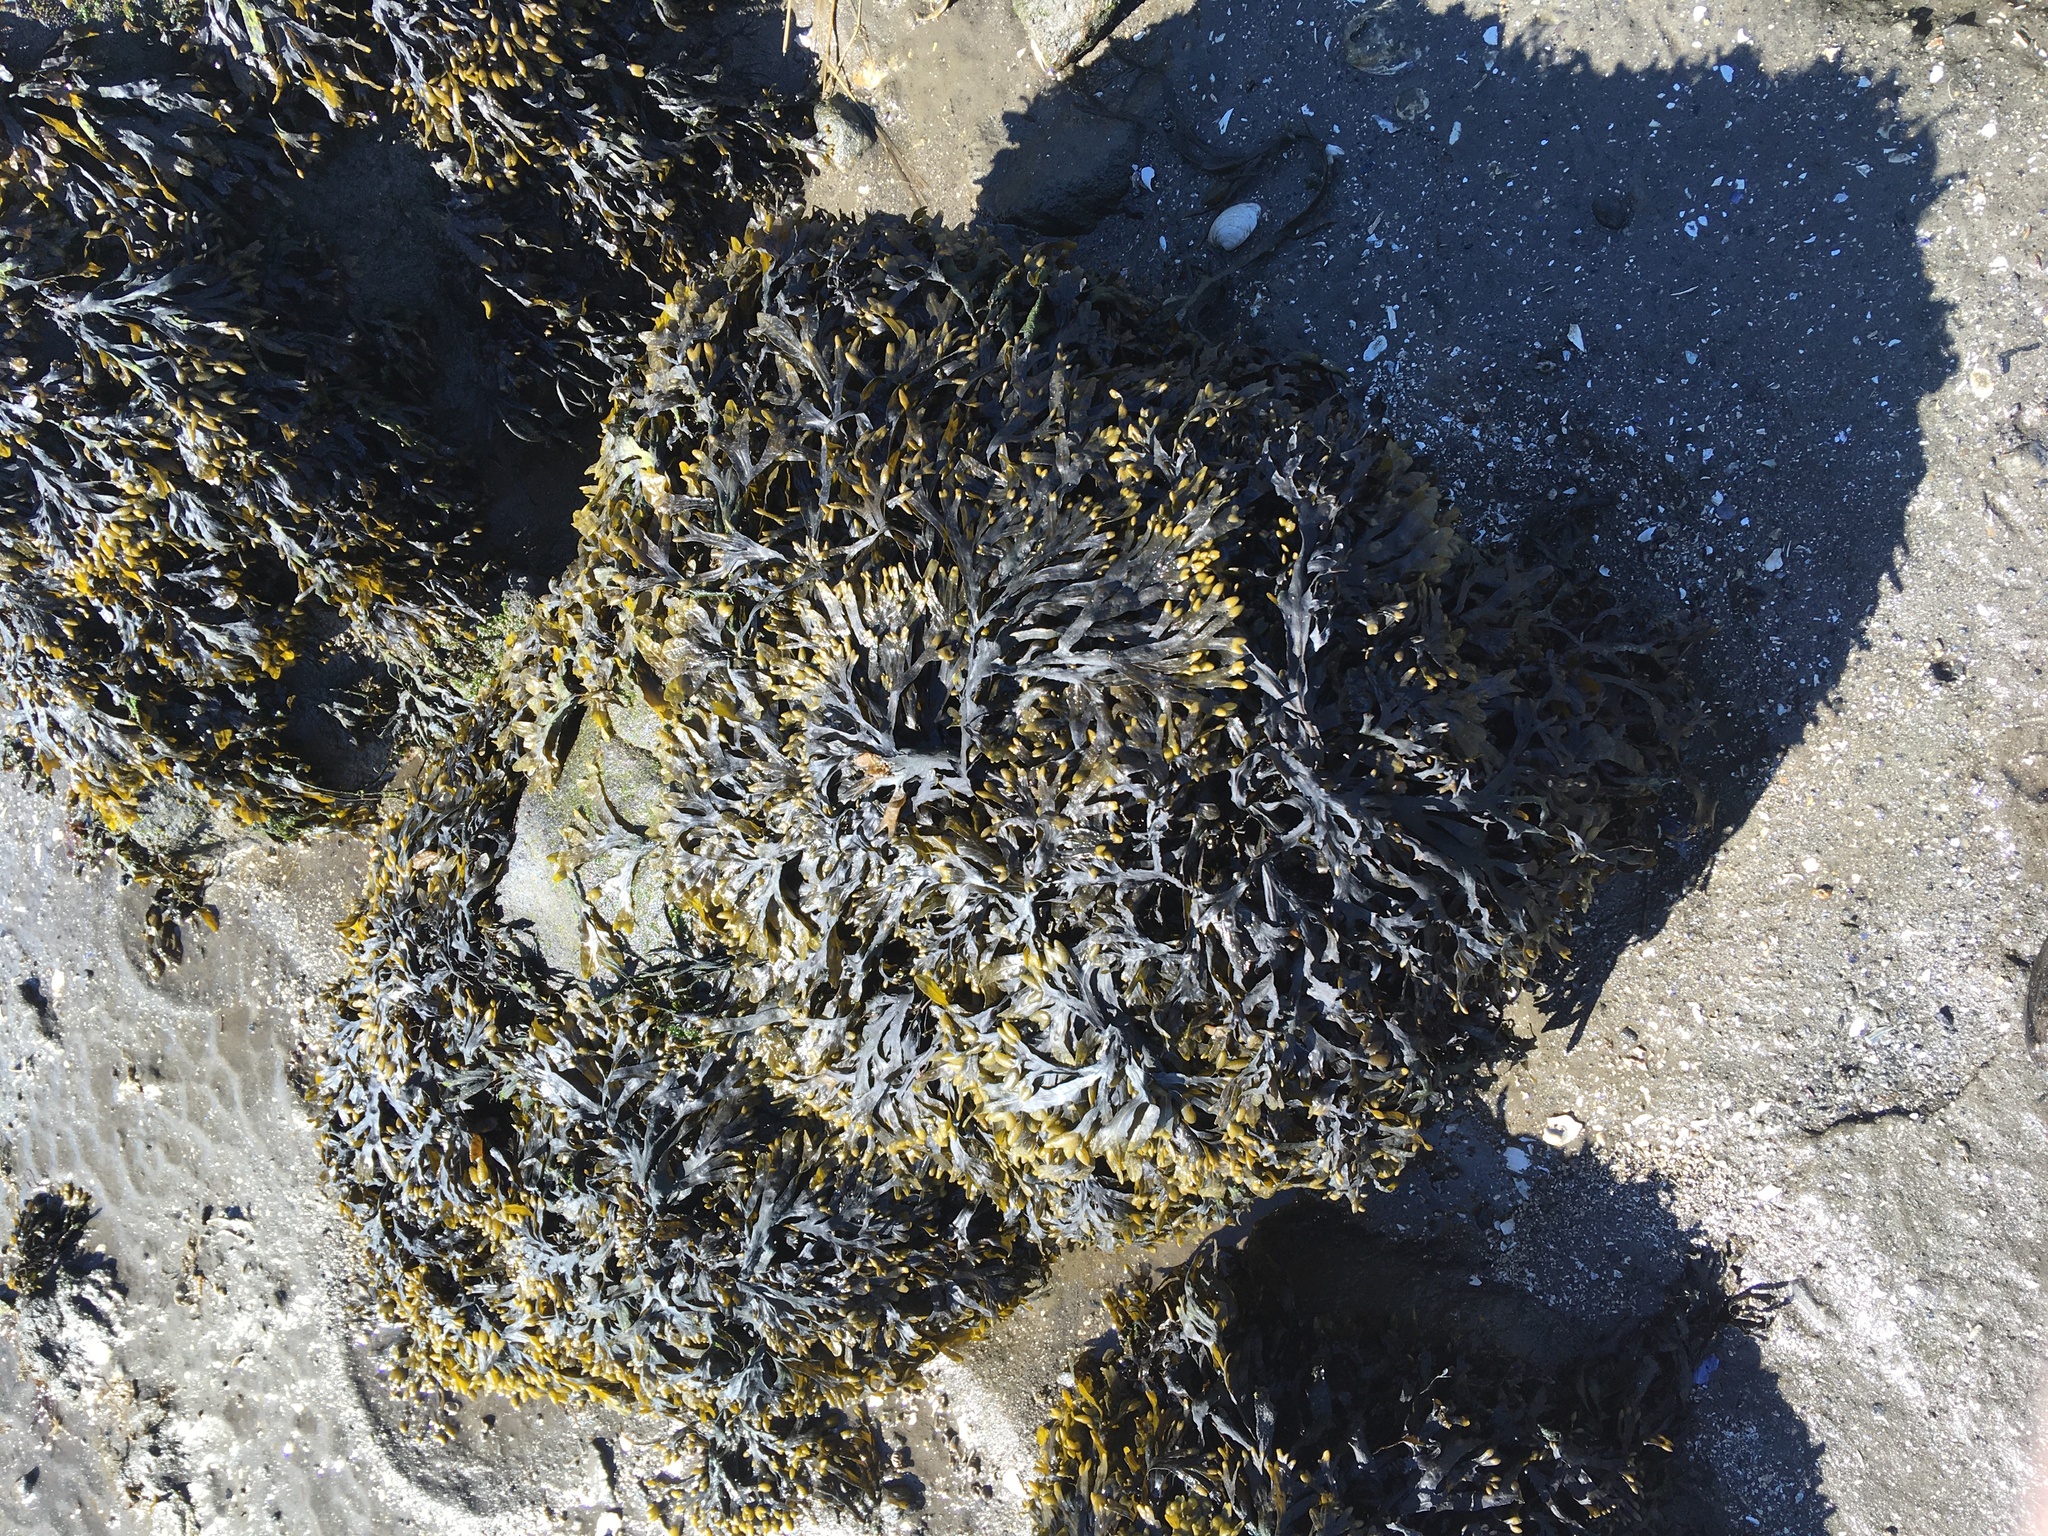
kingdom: Chromista
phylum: Ochrophyta
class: Phaeophyceae
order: Fucales
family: Fucaceae
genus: Fucus
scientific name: Fucus vesiculosus
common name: Bladder wrack
